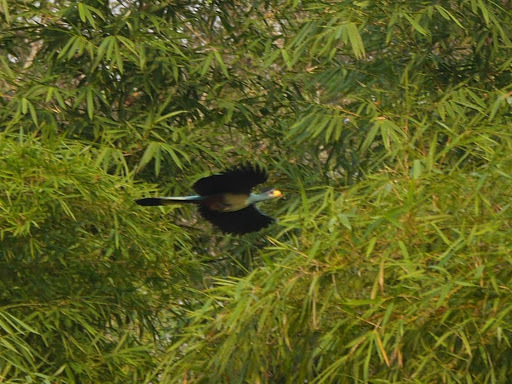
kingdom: Animalia
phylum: Chordata
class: Aves
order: Musophagiformes
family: Musophagidae
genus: Corythaeola
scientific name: Corythaeola cristata
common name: Great blue turaco
